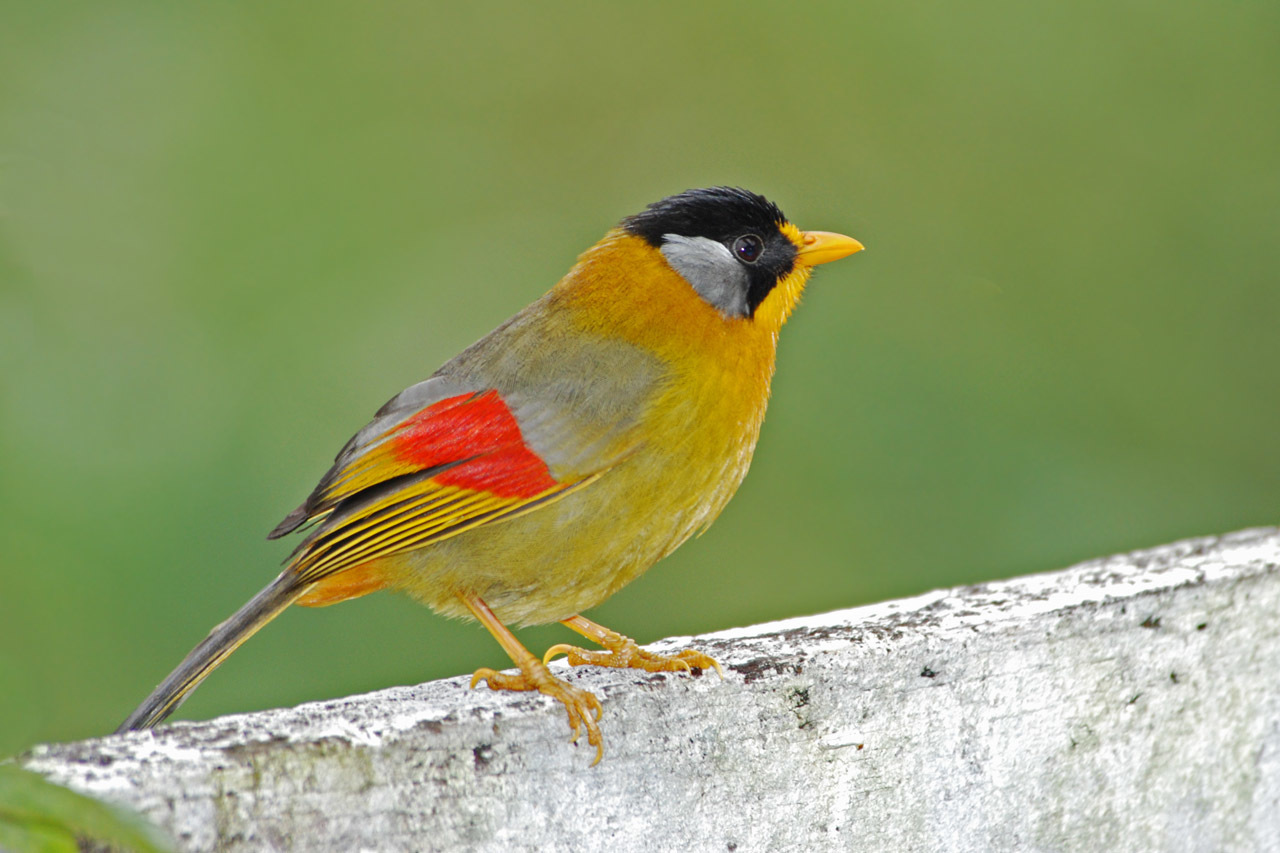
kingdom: Animalia
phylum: Chordata
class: Aves
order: Passeriformes
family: Leiothrichidae
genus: Leiothrix
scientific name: Leiothrix argentauris
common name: Silver-eared mesia
